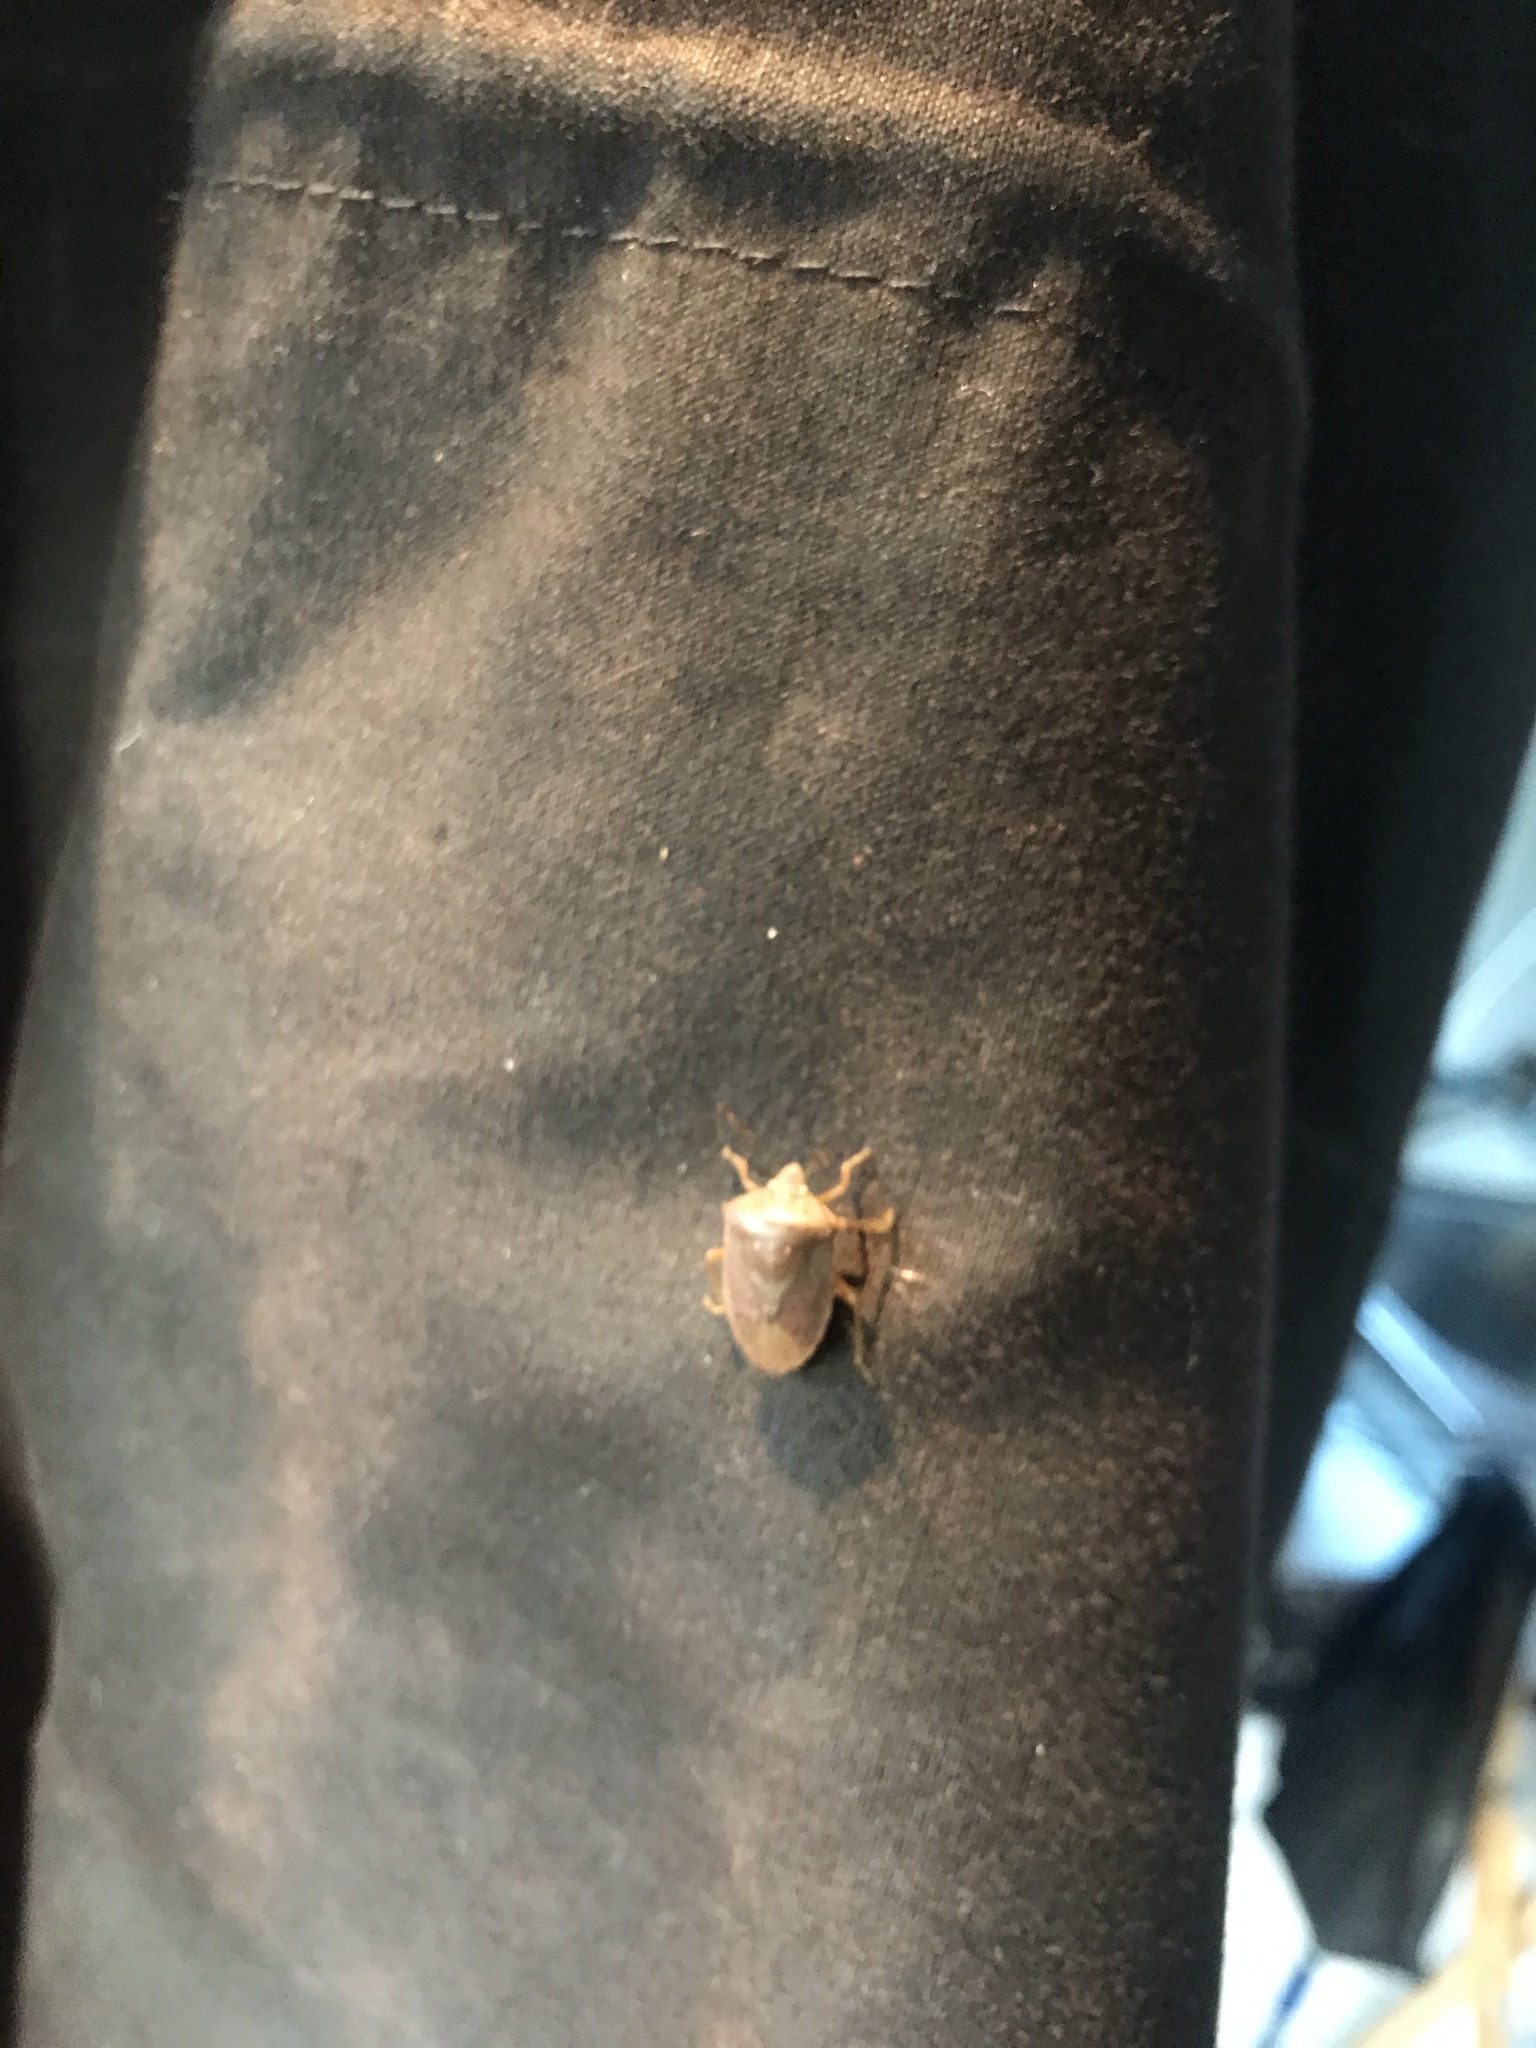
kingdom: Animalia
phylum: Arthropoda
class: Insecta
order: Hemiptera
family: Pentatomidae
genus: Nezara
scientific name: Nezara viridula
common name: Southern green stink bug
